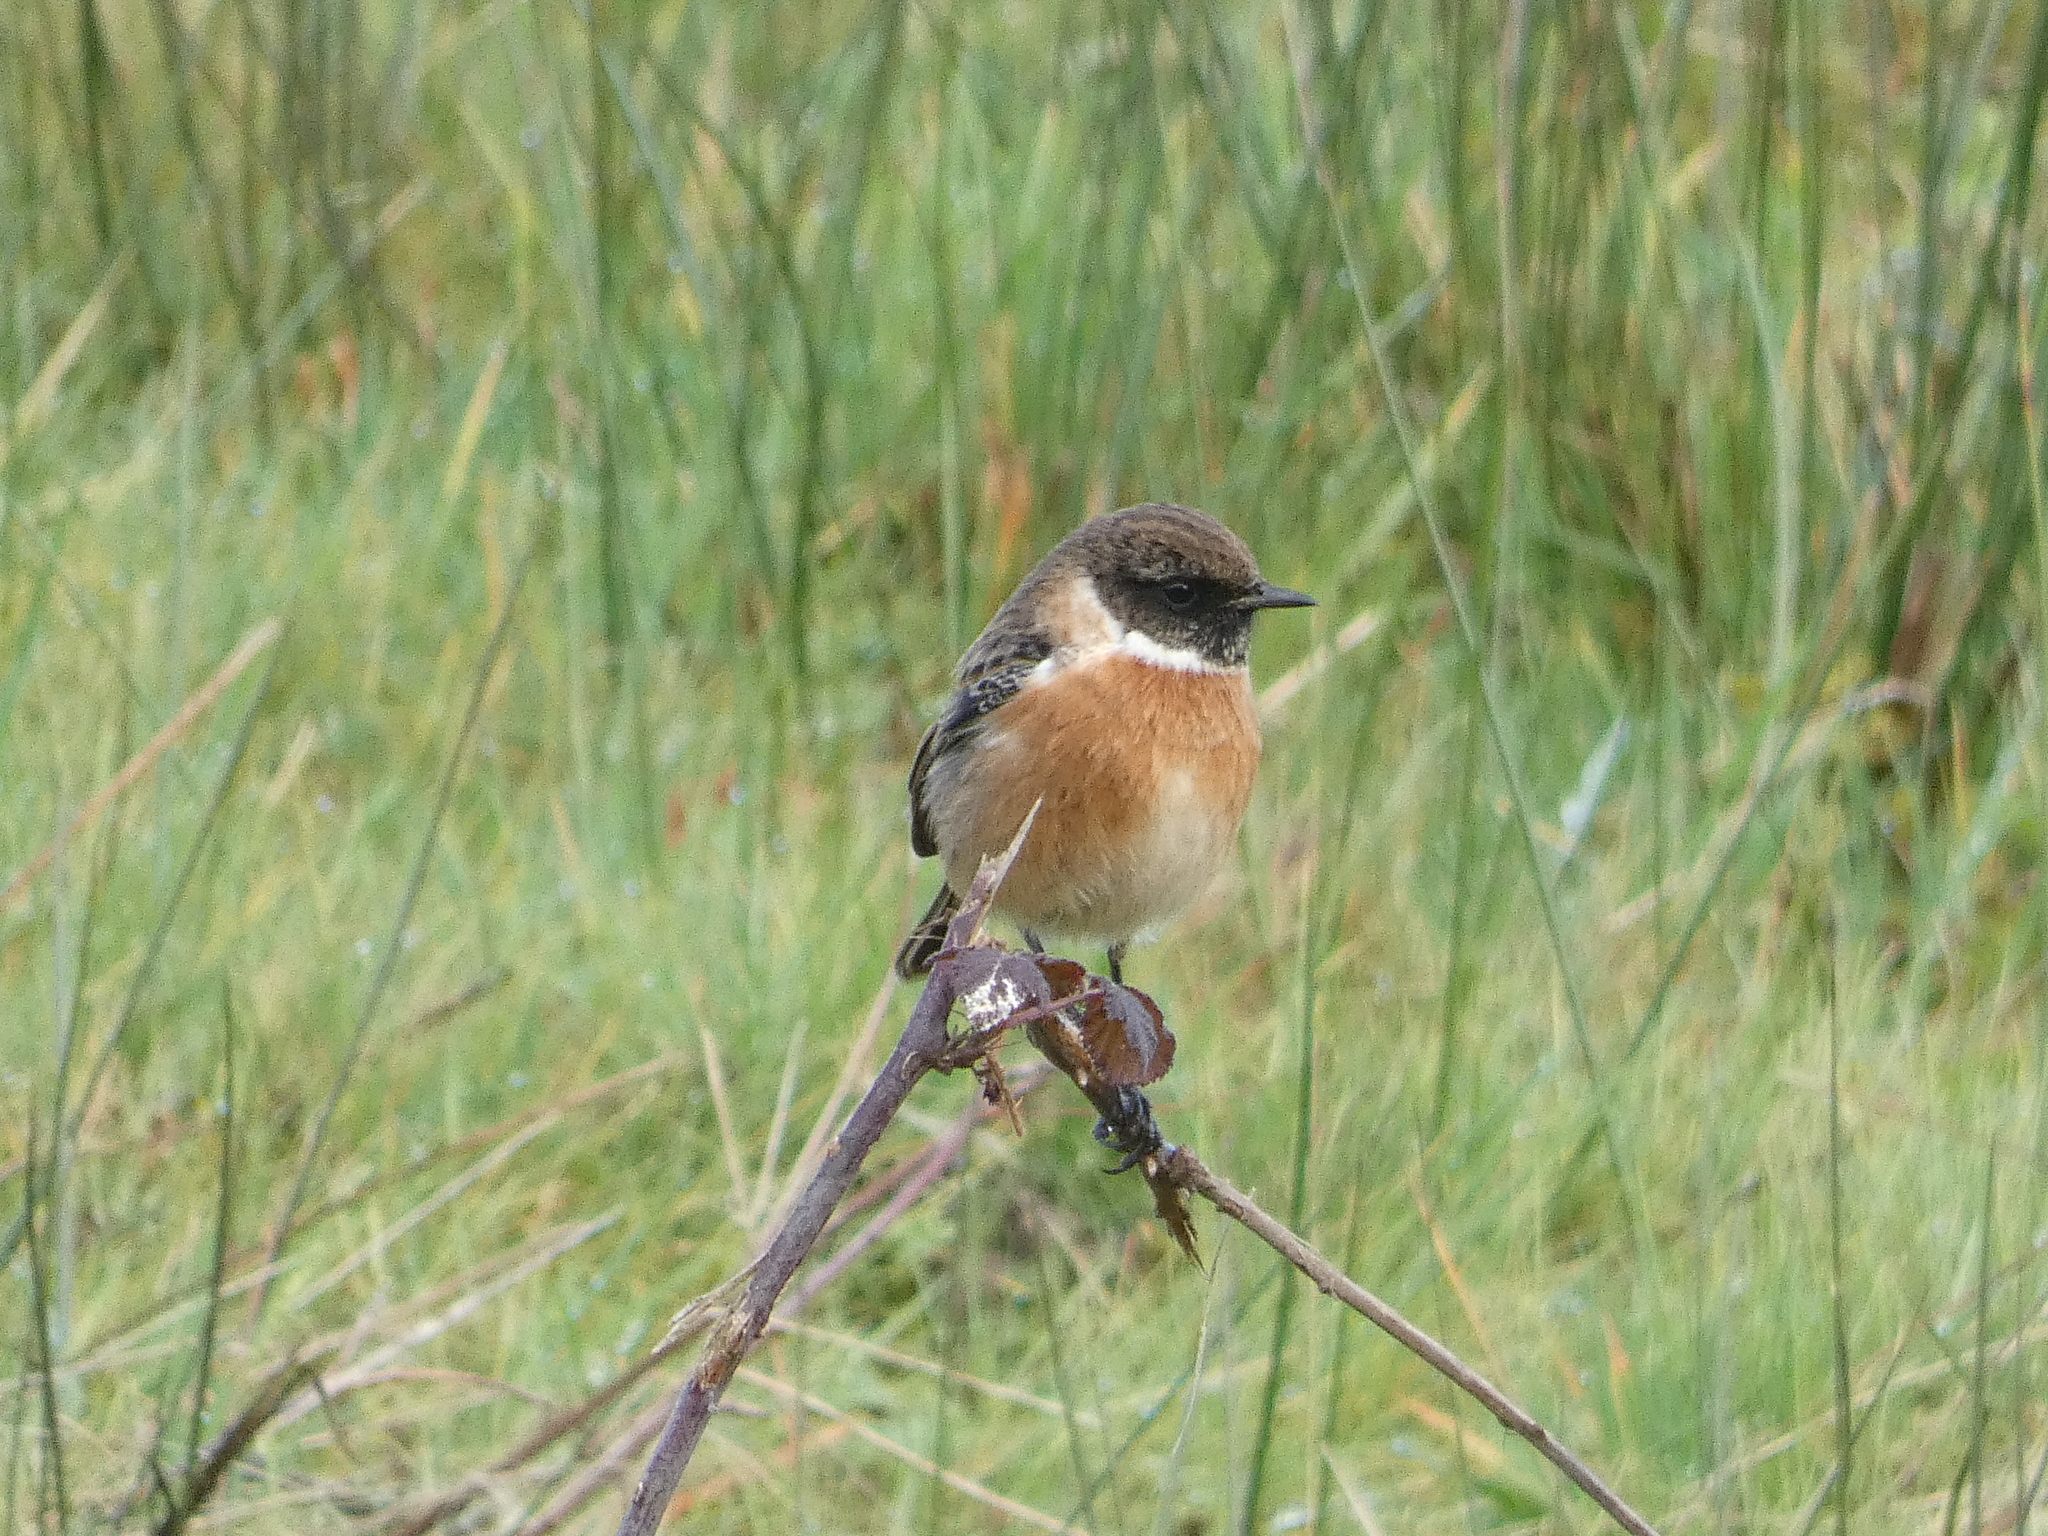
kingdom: Animalia
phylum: Chordata
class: Aves
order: Passeriformes
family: Muscicapidae
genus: Saxicola
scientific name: Saxicola rubicola
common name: European stonechat
